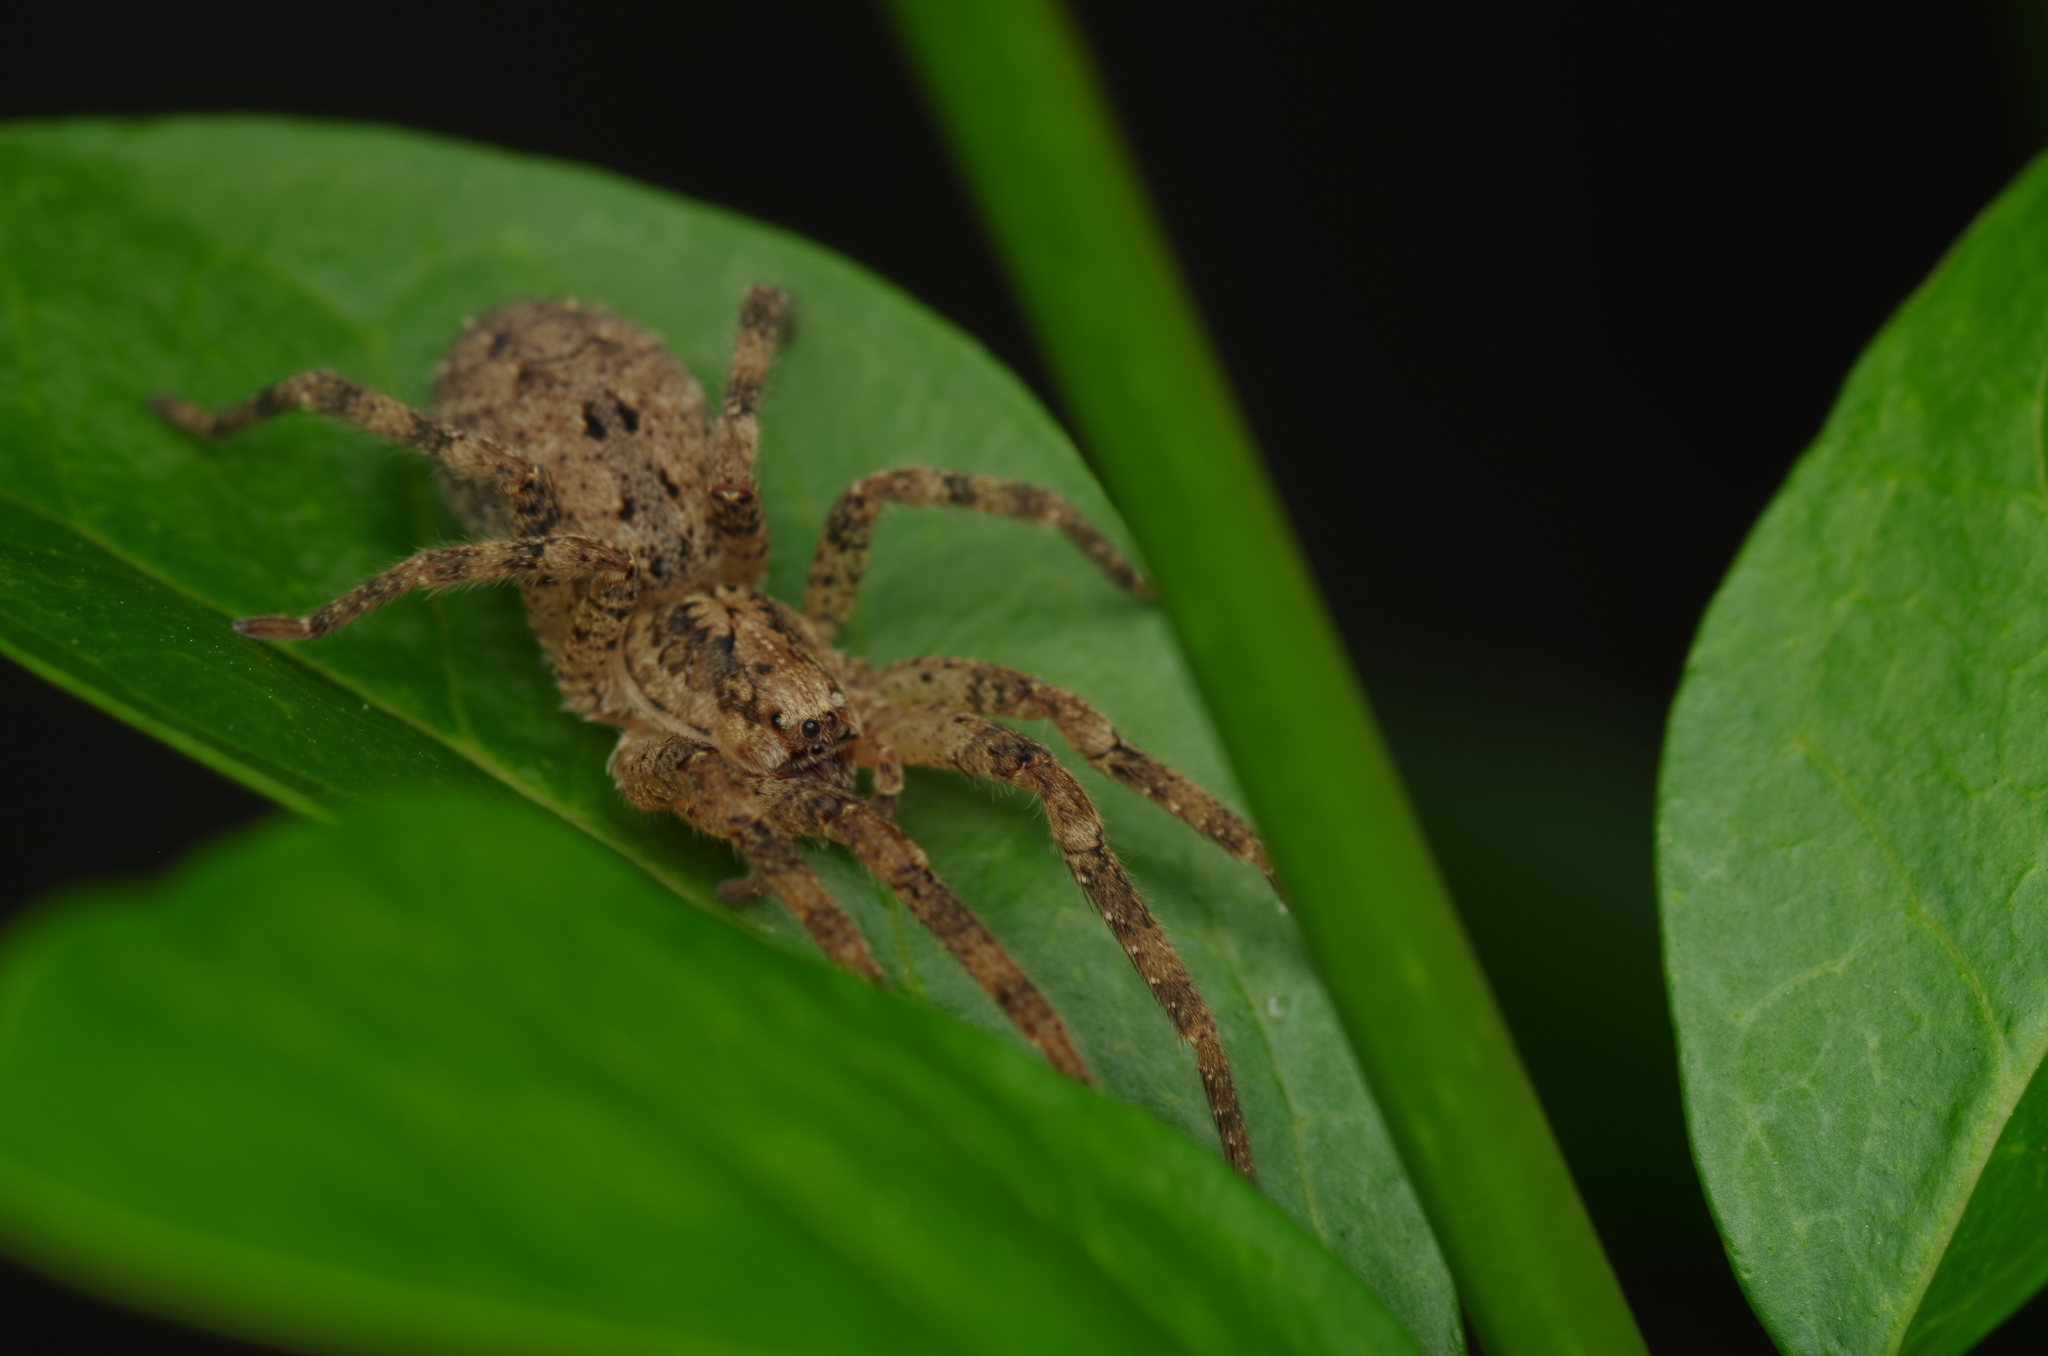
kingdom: Animalia
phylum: Arthropoda
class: Arachnida
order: Araneae
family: Zoropsidae
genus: Zoropsis
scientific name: Zoropsis spinimana
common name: Zoropsid spider
